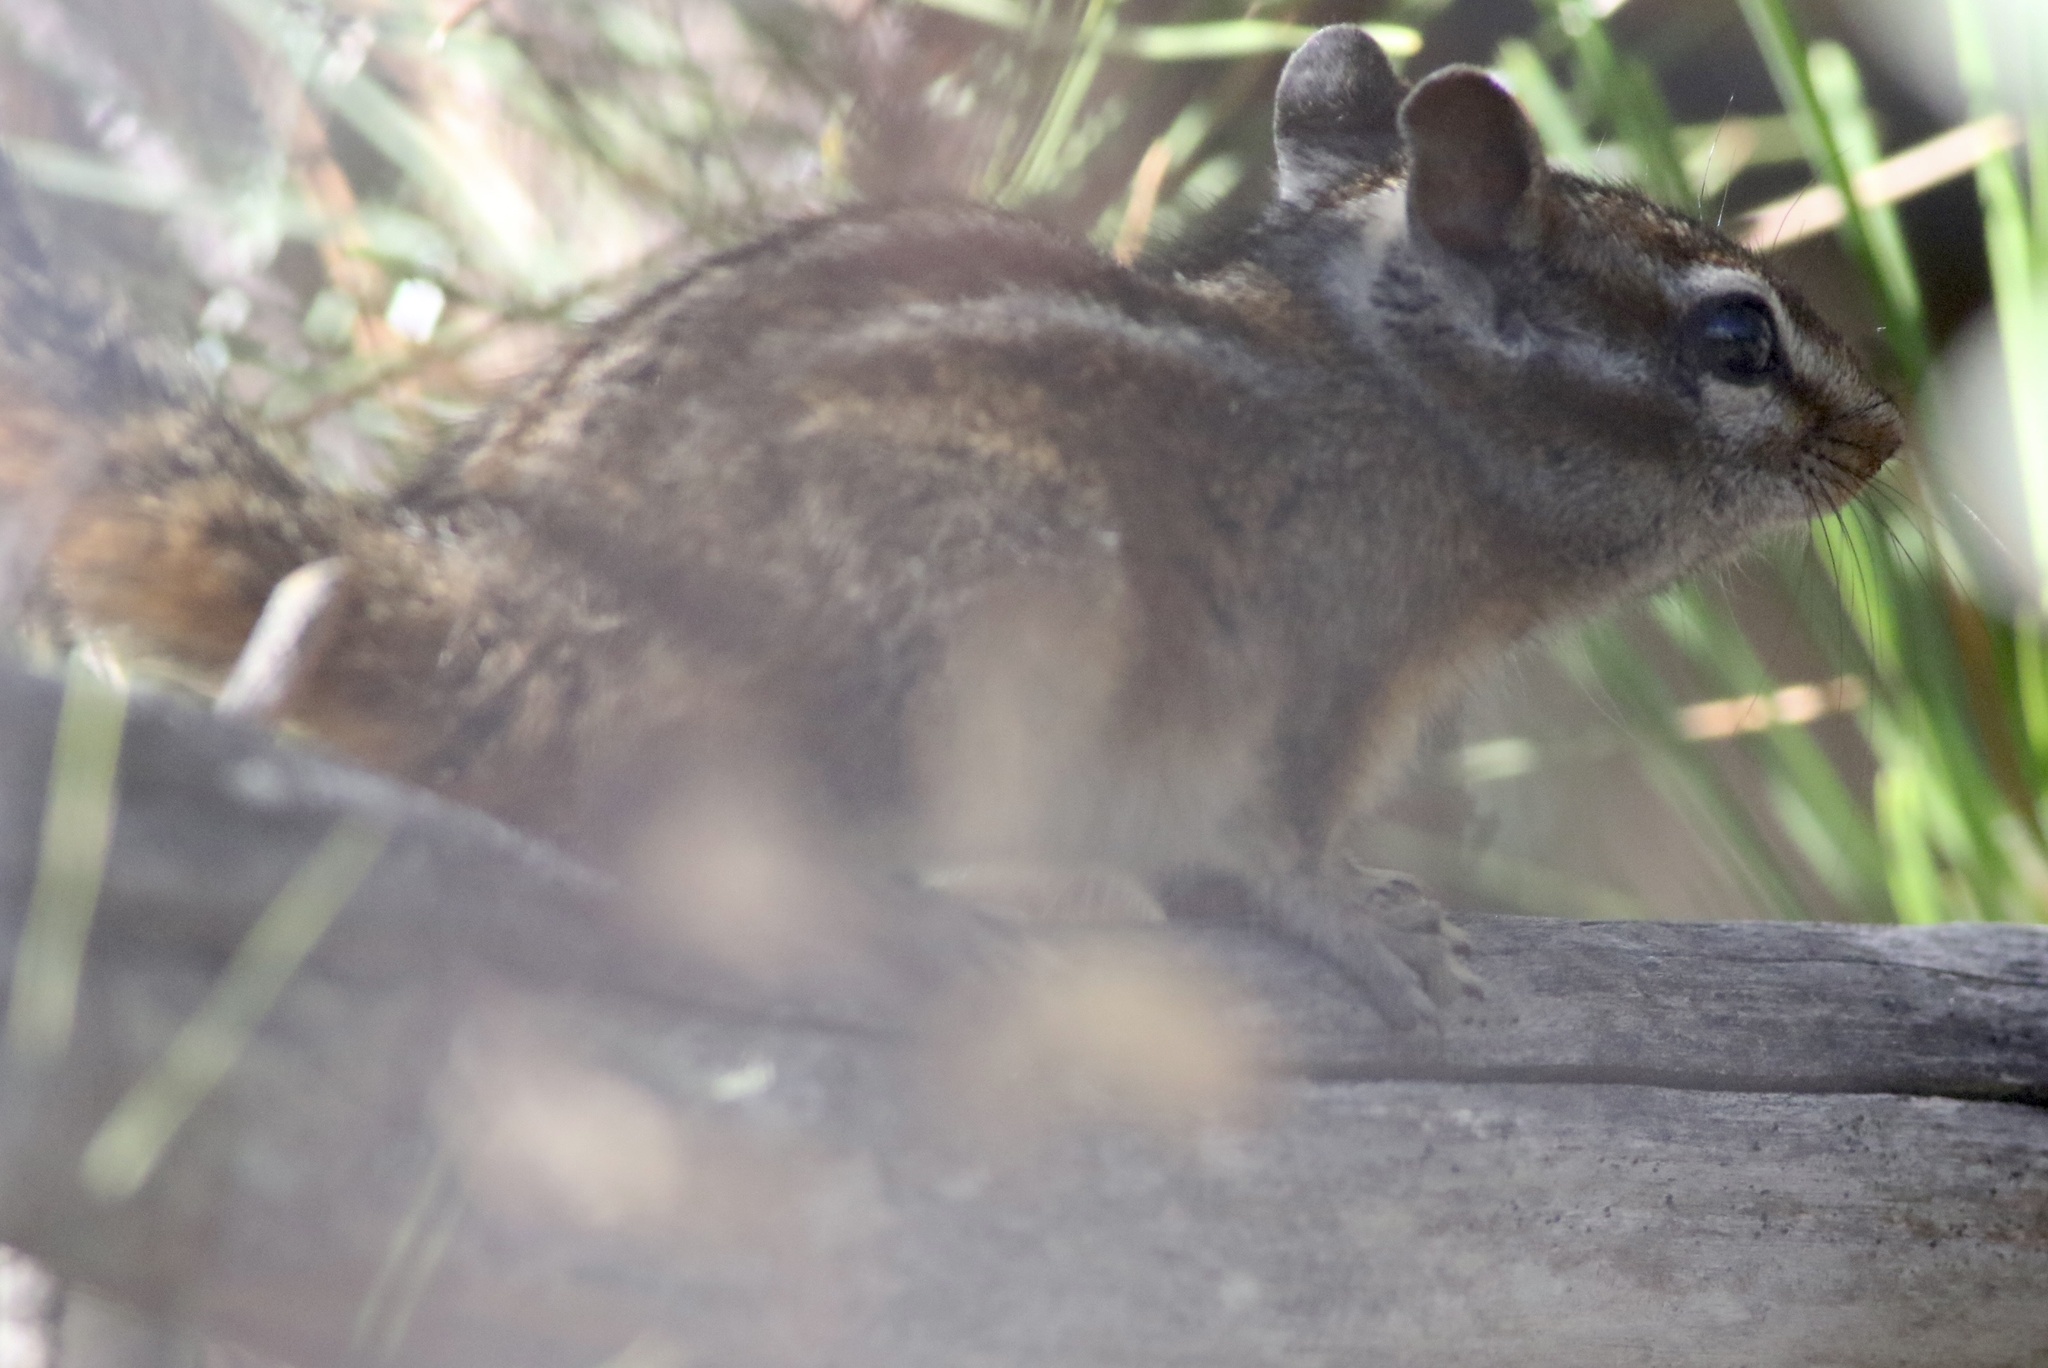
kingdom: Animalia
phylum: Chordata
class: Mammalia
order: Rodentia
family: Sciuridae
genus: Tamias
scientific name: Tamias merriami
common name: Merriam's chipmunk
